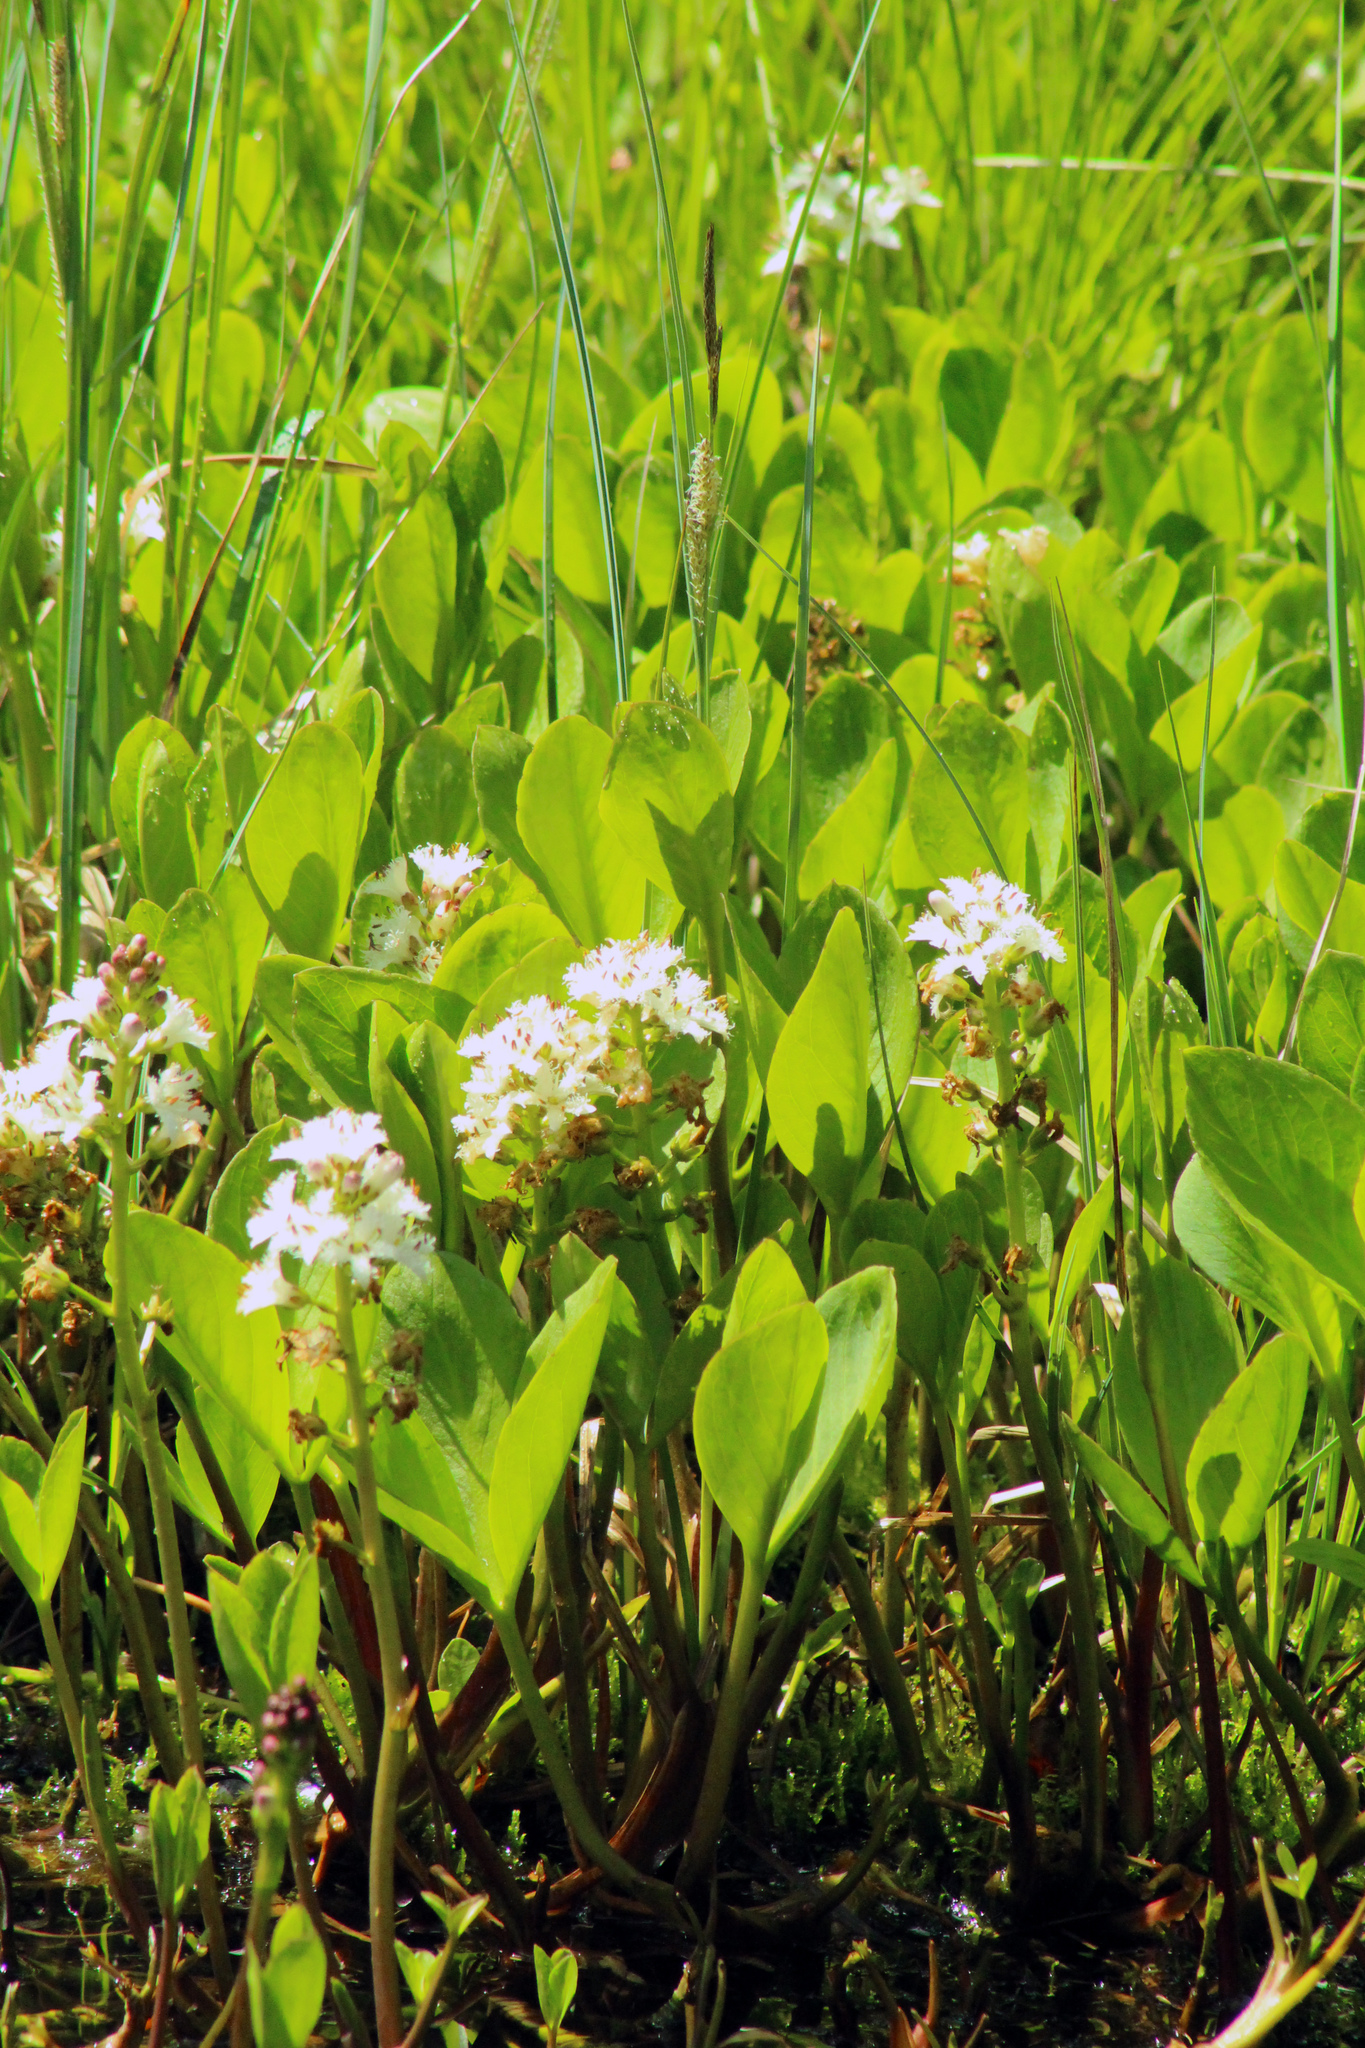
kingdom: Plantae
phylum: Tracheophyta
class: Magnoliopsida
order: Asterales
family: Menyanthaceae
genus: Menyanthes
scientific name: Menyanthes trifoliata
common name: Bogbean
